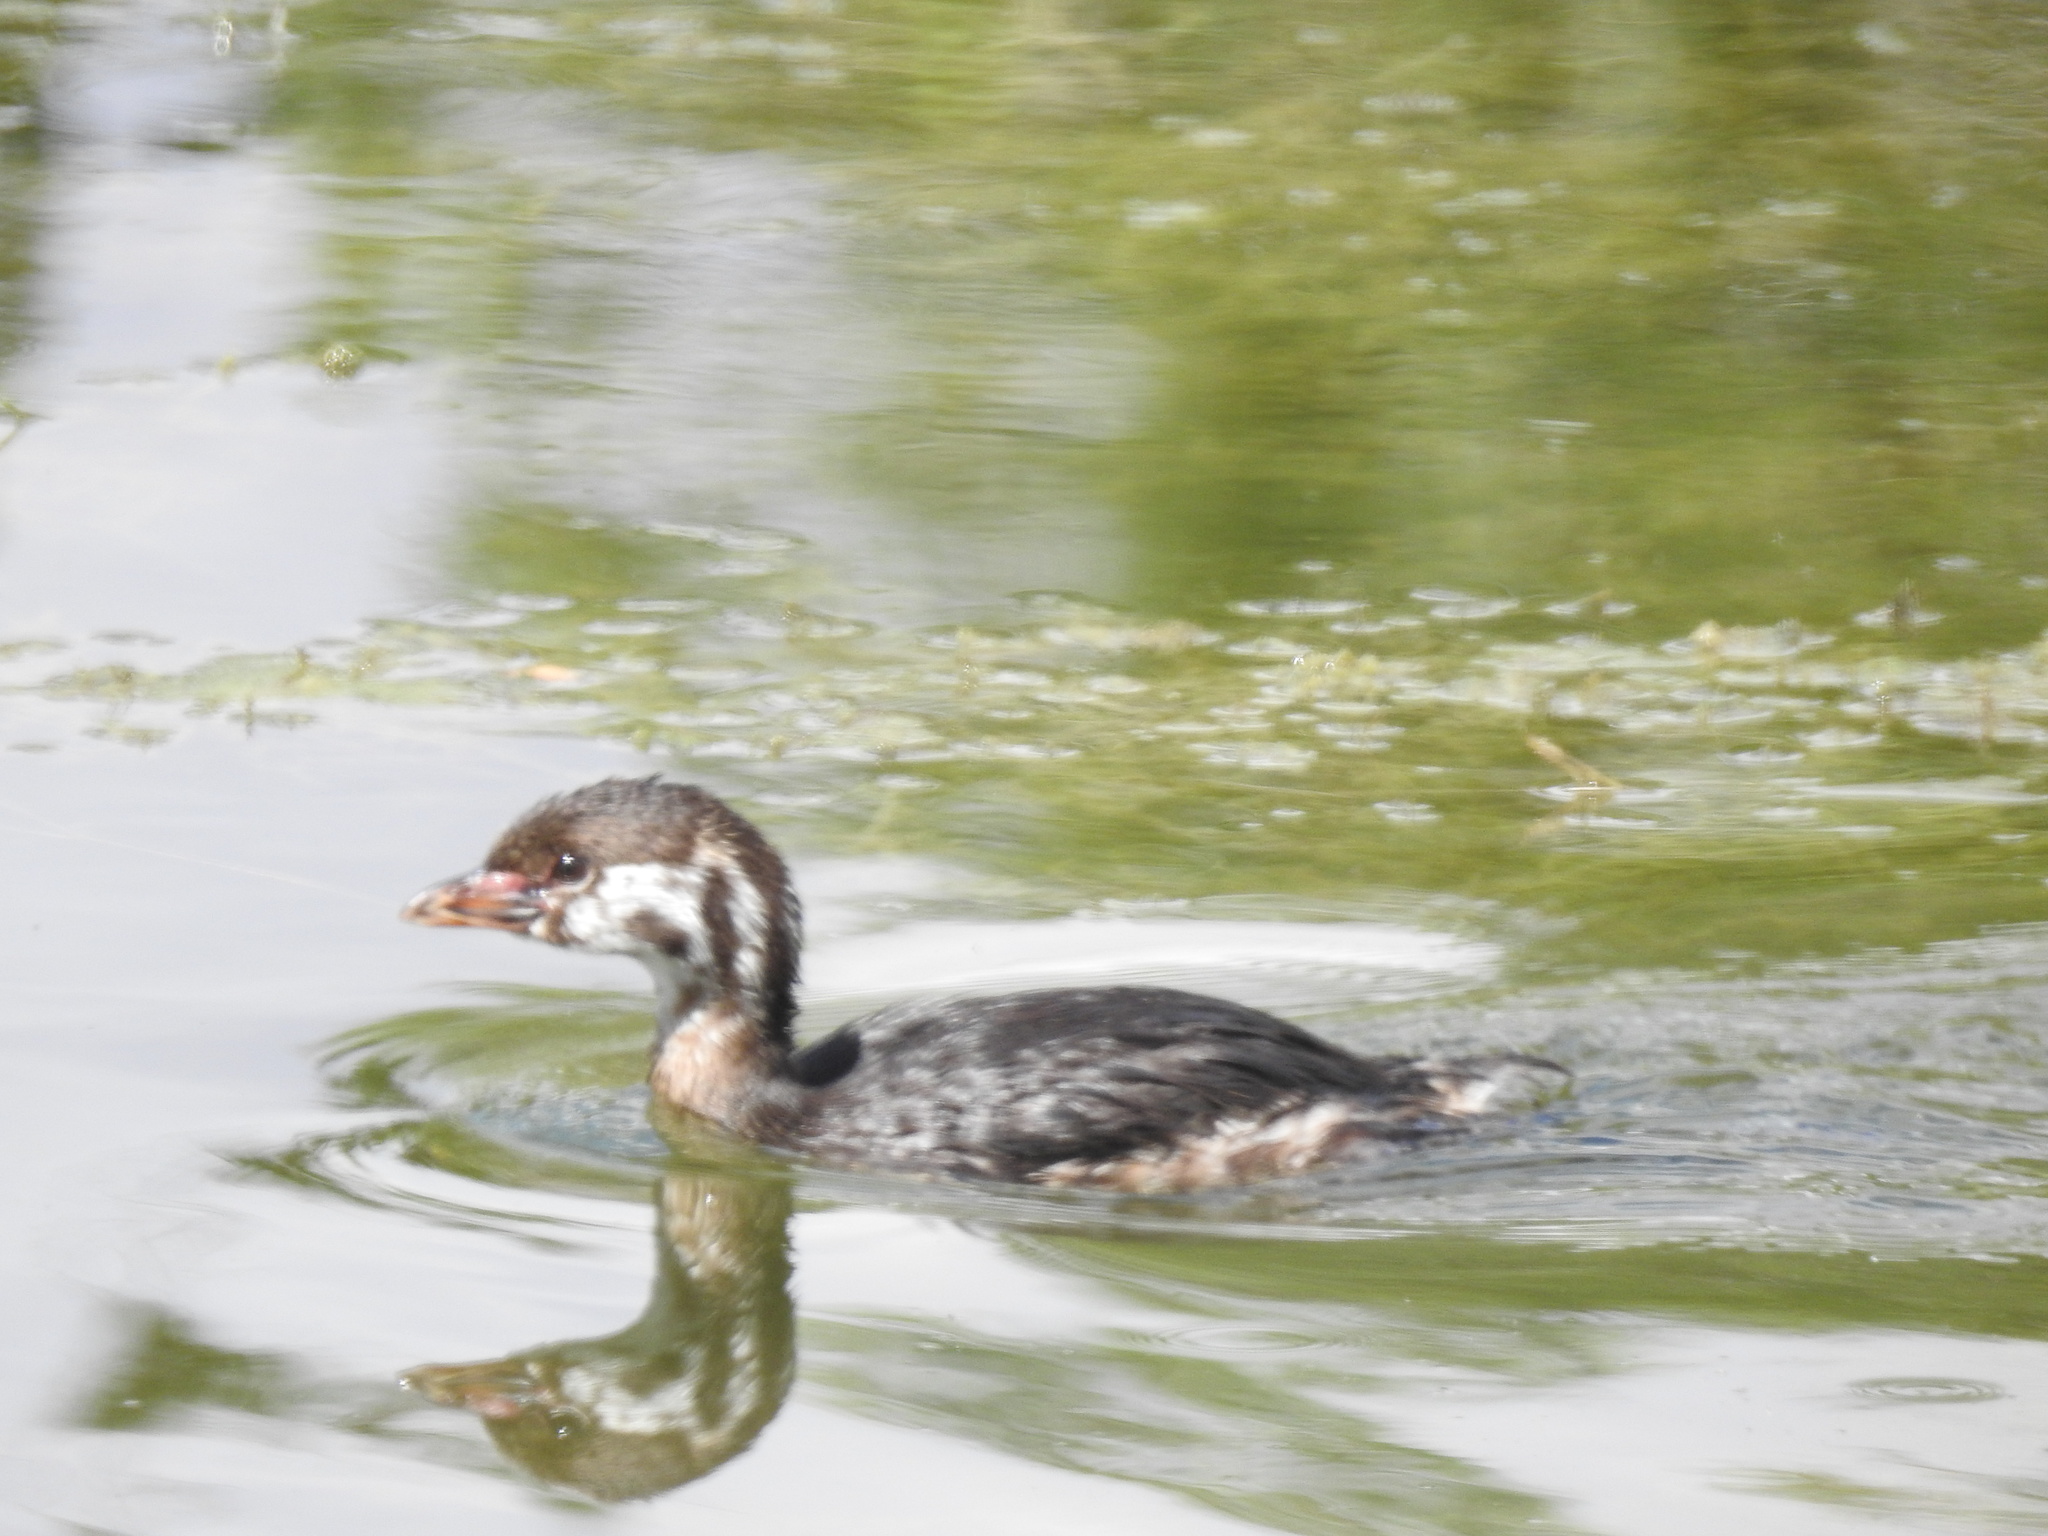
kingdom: Animalia
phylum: Chordata
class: Aves
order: Podicipediformes
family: Podicipedidae
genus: Podilymbus
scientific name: Podilymbus podiceps
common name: Pied-billed grebe
